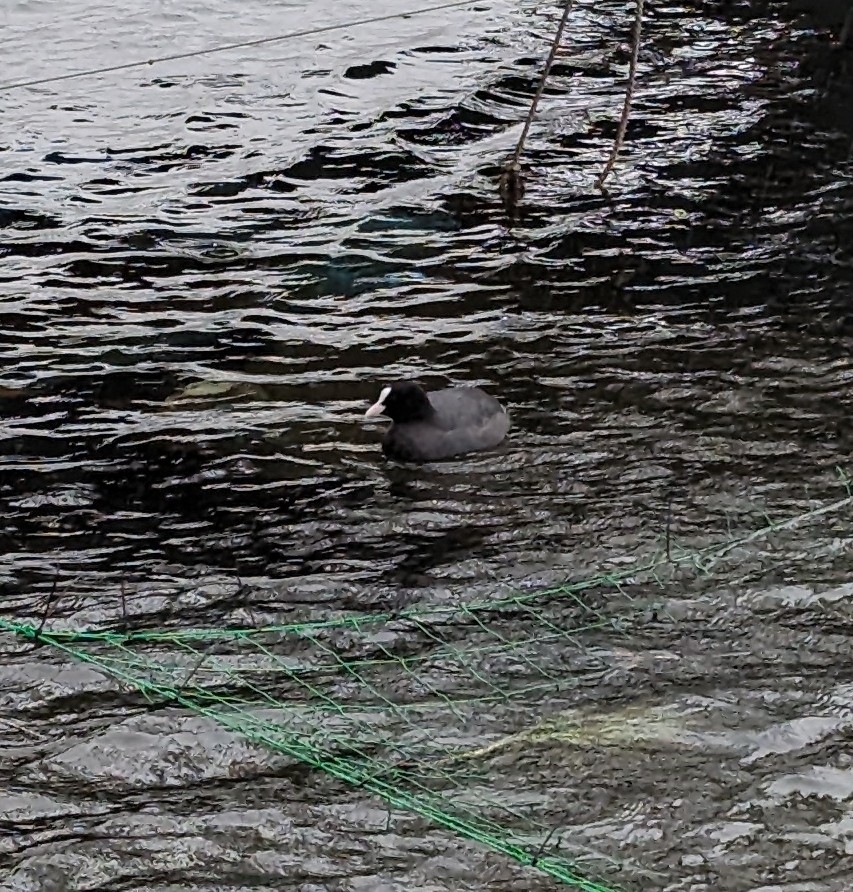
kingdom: Animalia
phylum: Chordata
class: Aves
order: Gruiformes
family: Rallidae
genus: Fulica
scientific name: Fulica atra
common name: Eurasian coot
